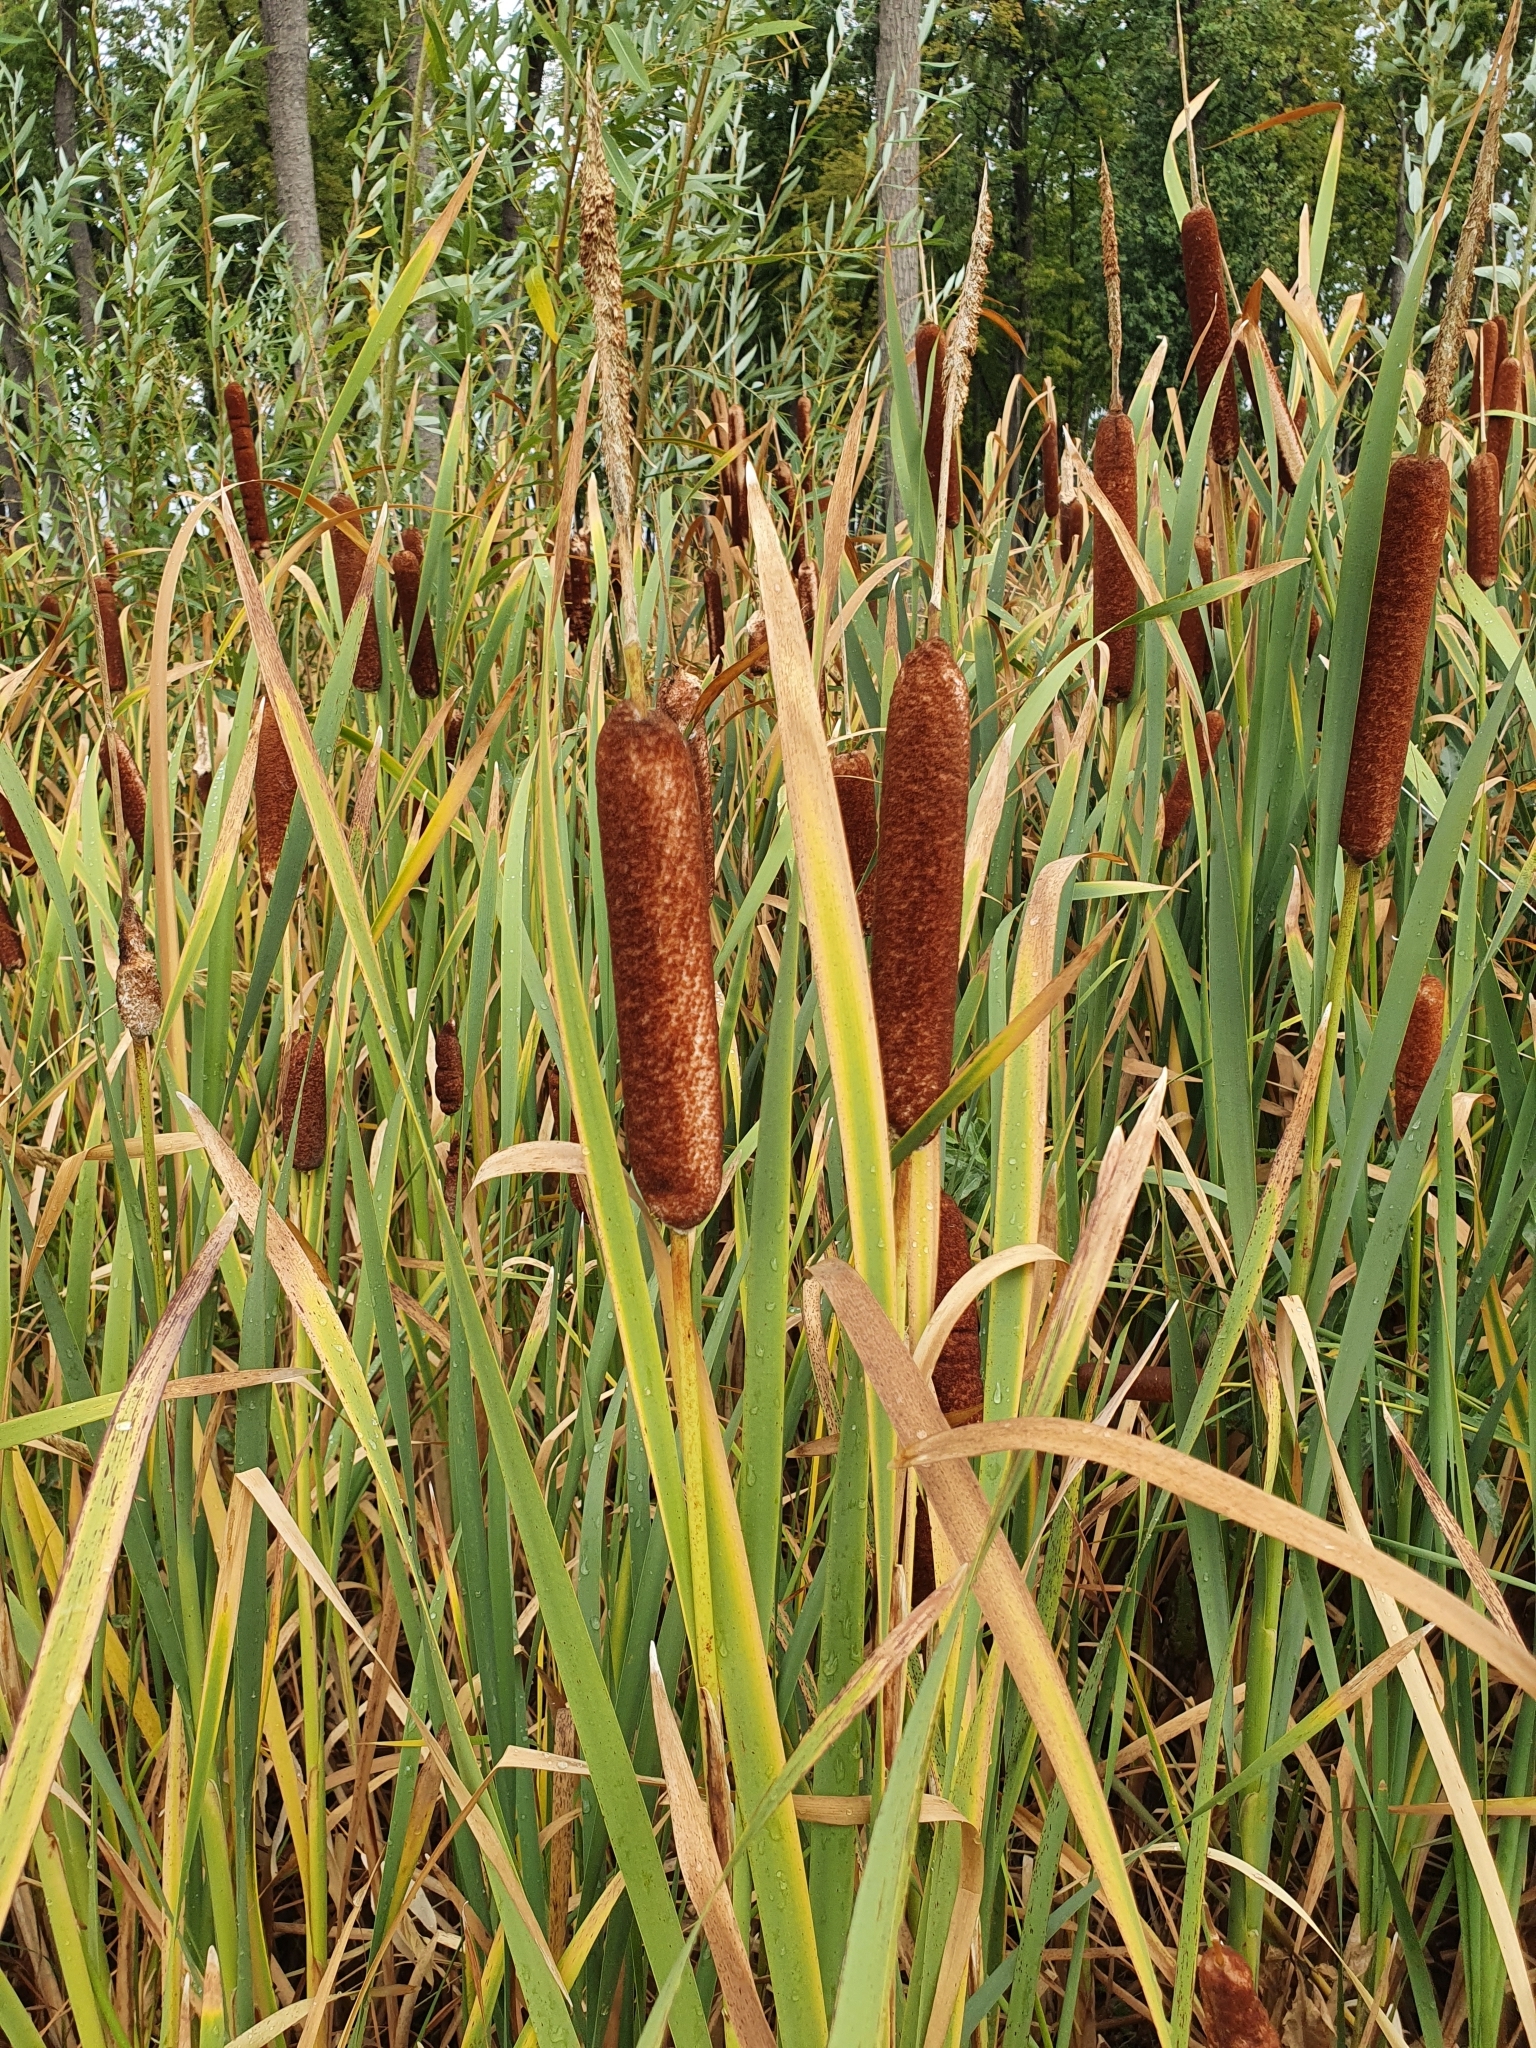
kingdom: Plantae
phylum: Tracheophyta
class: Liliopsida
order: Poales
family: Typhaceae
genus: Typha
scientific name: Typha latifolia
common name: Broadleaf cattail
